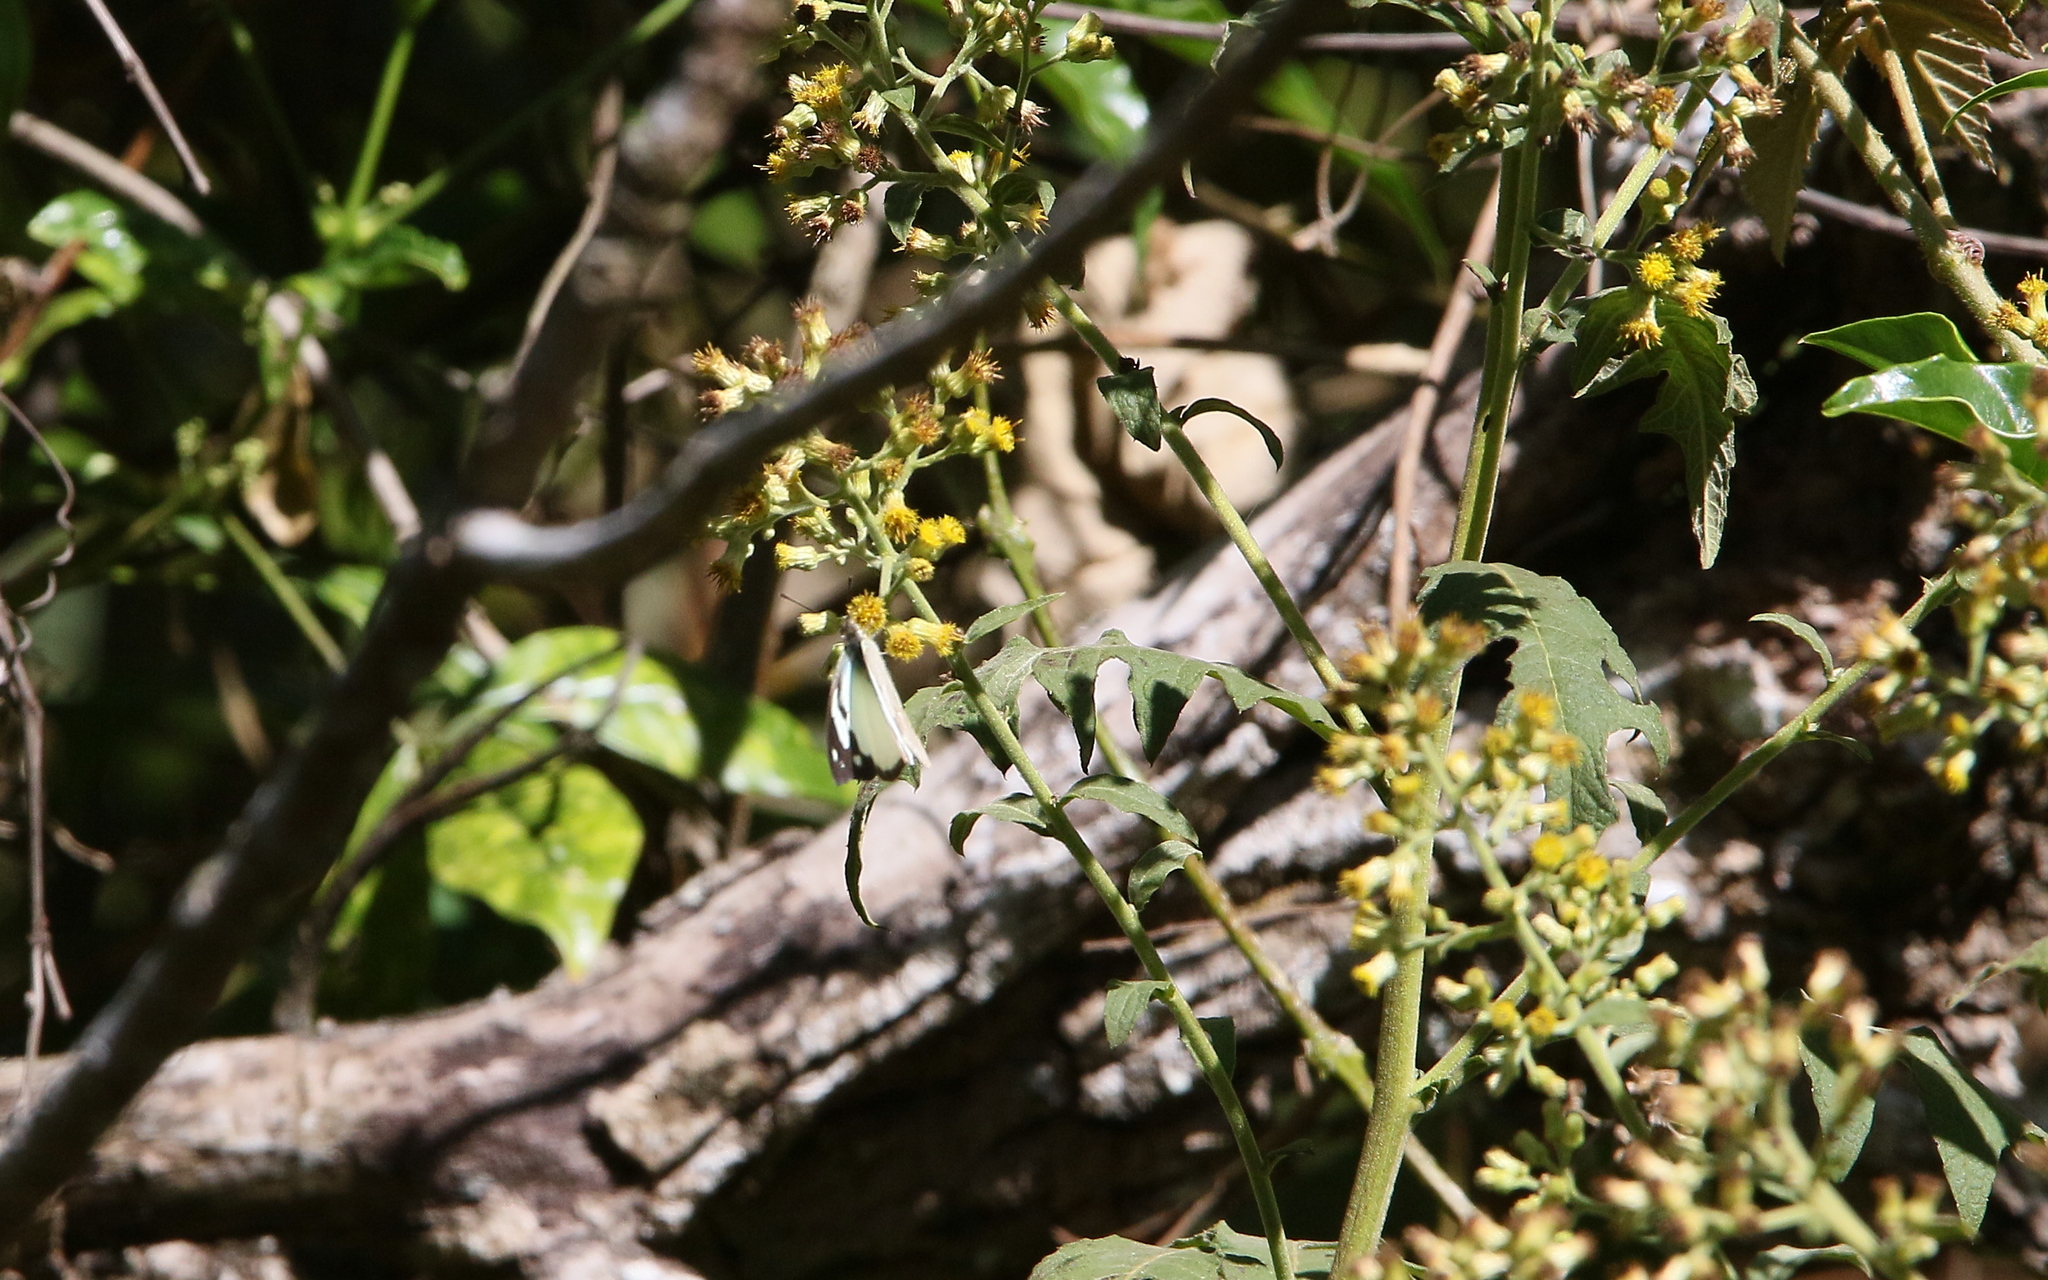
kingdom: Animalia
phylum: Arthropoda
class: Insecta
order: Lepidoptera
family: Pieridae
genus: Appias
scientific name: Appias pandione
